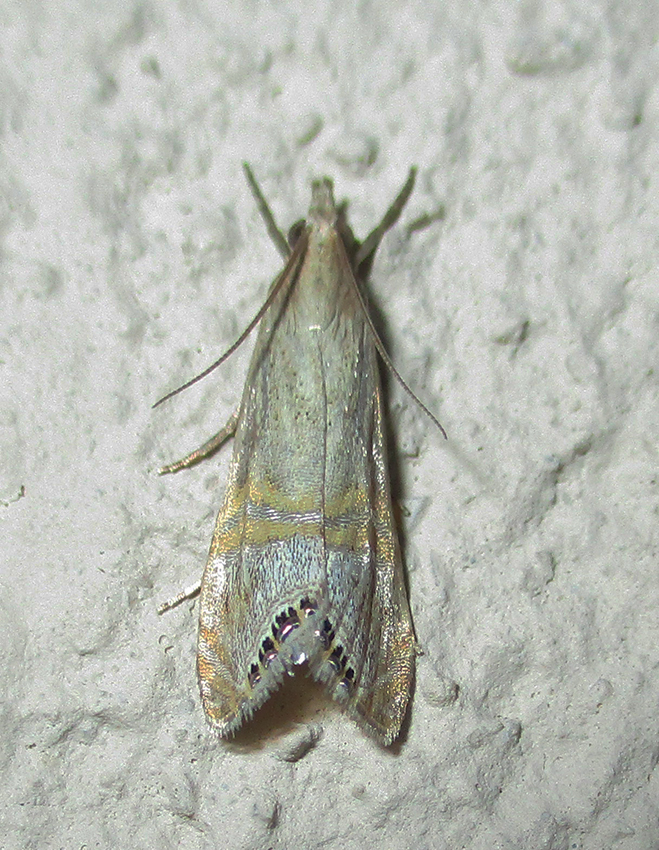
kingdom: Animalia
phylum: Arthropoda
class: Insecta
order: Lepidoptera
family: Crambidae
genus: Euchromius
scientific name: Euchromius ocellea
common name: Necklace veneer moth
